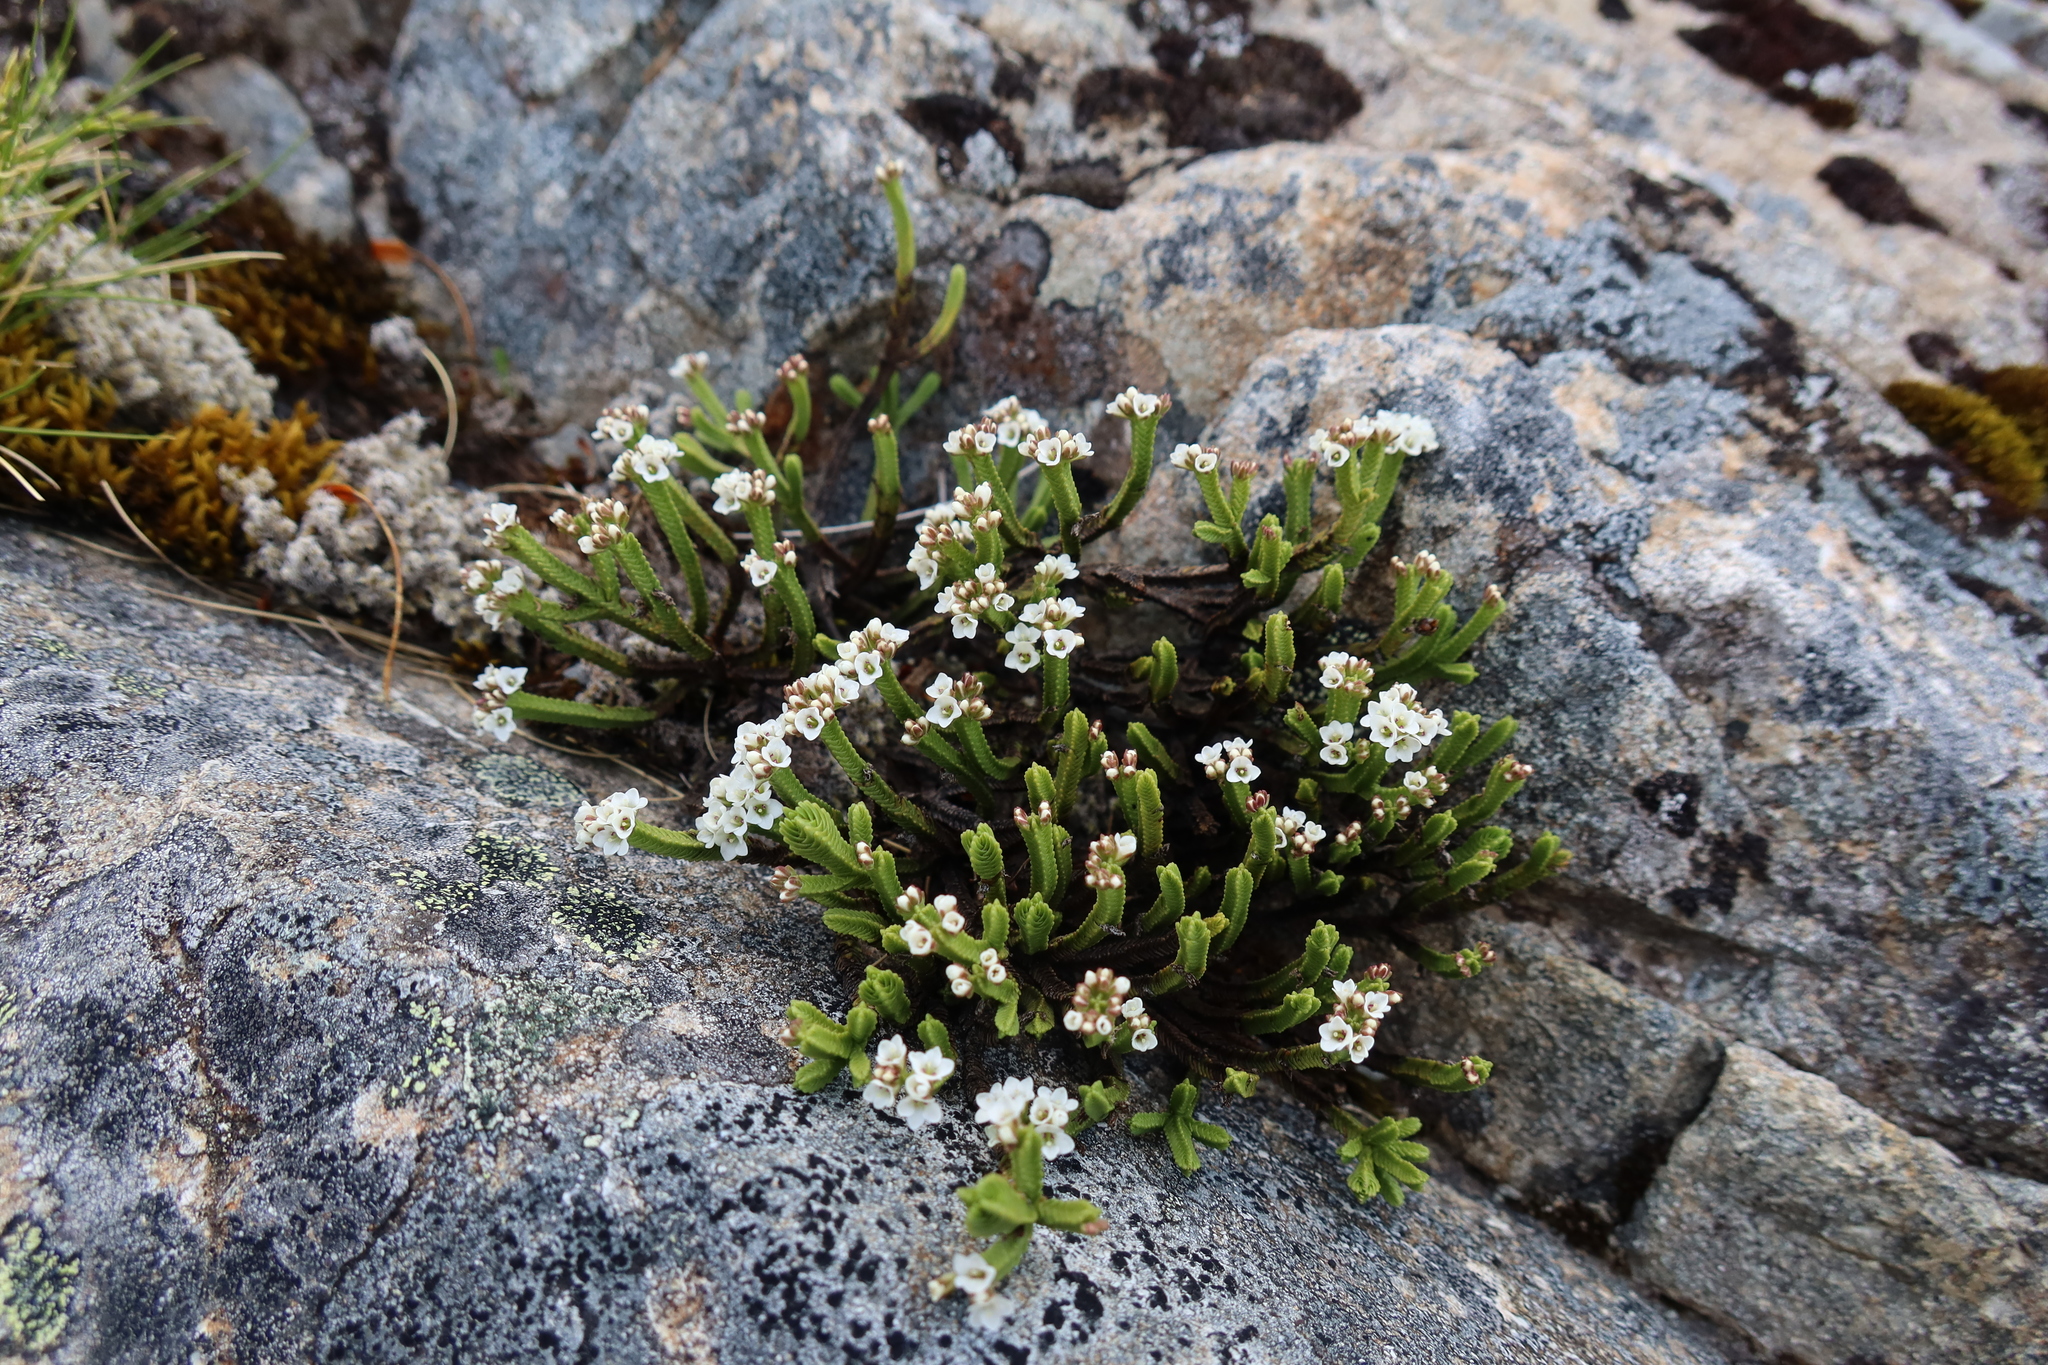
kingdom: Plantae
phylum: Tracheophyta
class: Magnoliopsida
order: Lamiales
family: Plantaginaceae
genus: Veronica
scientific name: Veronica tetrasticha
